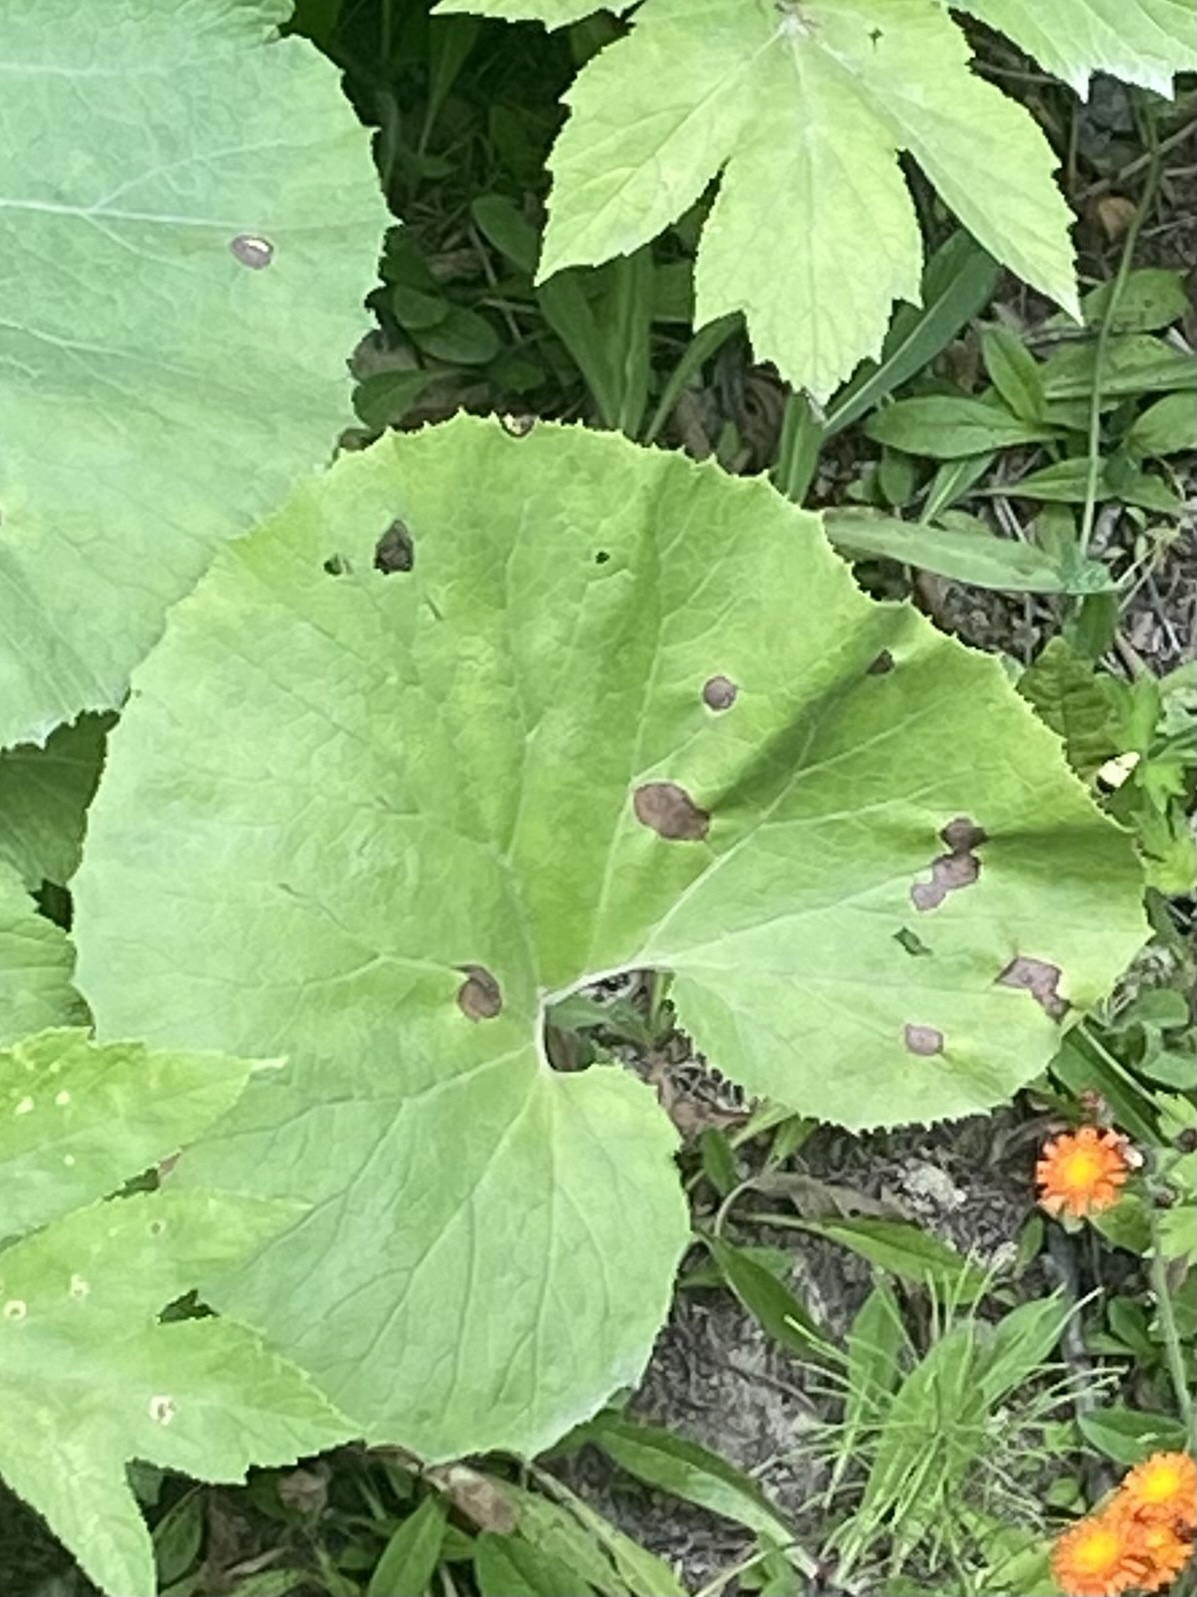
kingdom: Plantae
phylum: Tracheophyta
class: Magnoliopsida
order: Asterales
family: Asteraceae
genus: Petasites
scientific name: Petasites japonicus
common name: Giant butterbur
